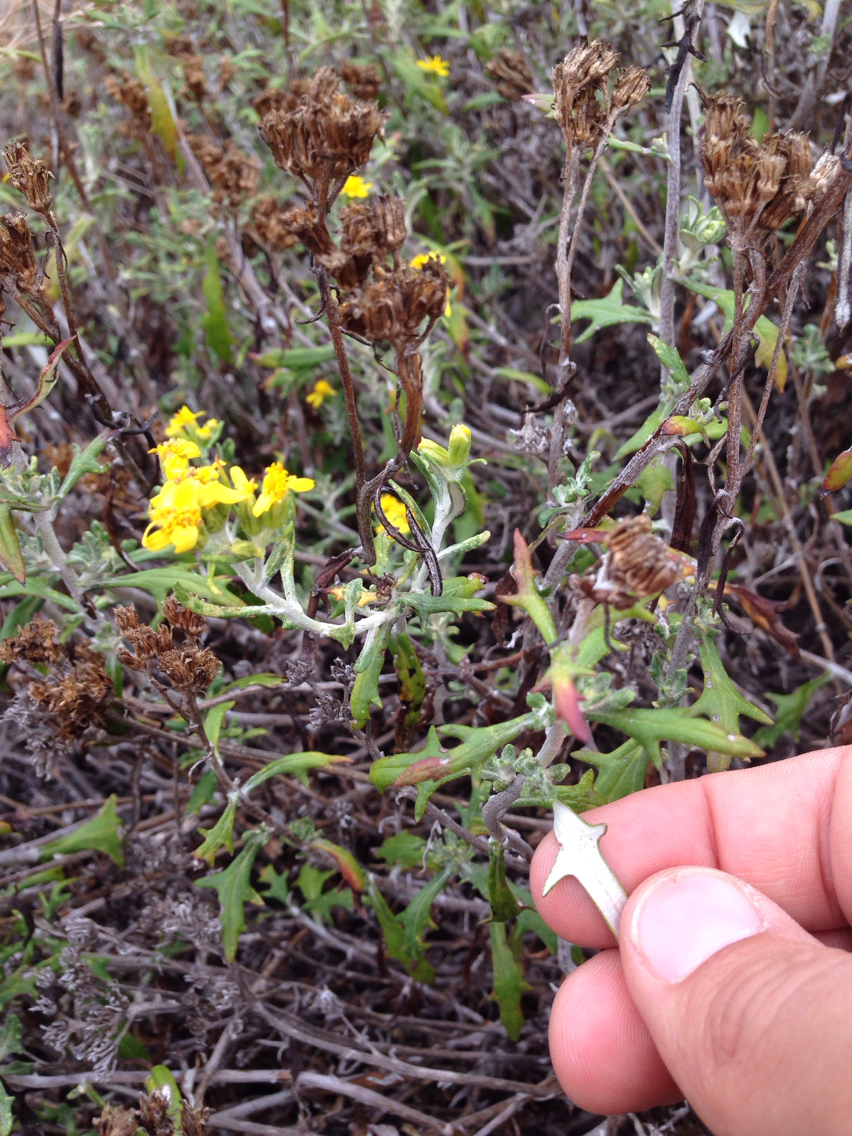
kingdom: Plantae
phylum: Tracheophyta
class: Magnoliopsida
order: Asterales
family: Asteraceae
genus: Eriophyllum
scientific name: Eriophyllum staechadifolium
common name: Lizardtail
